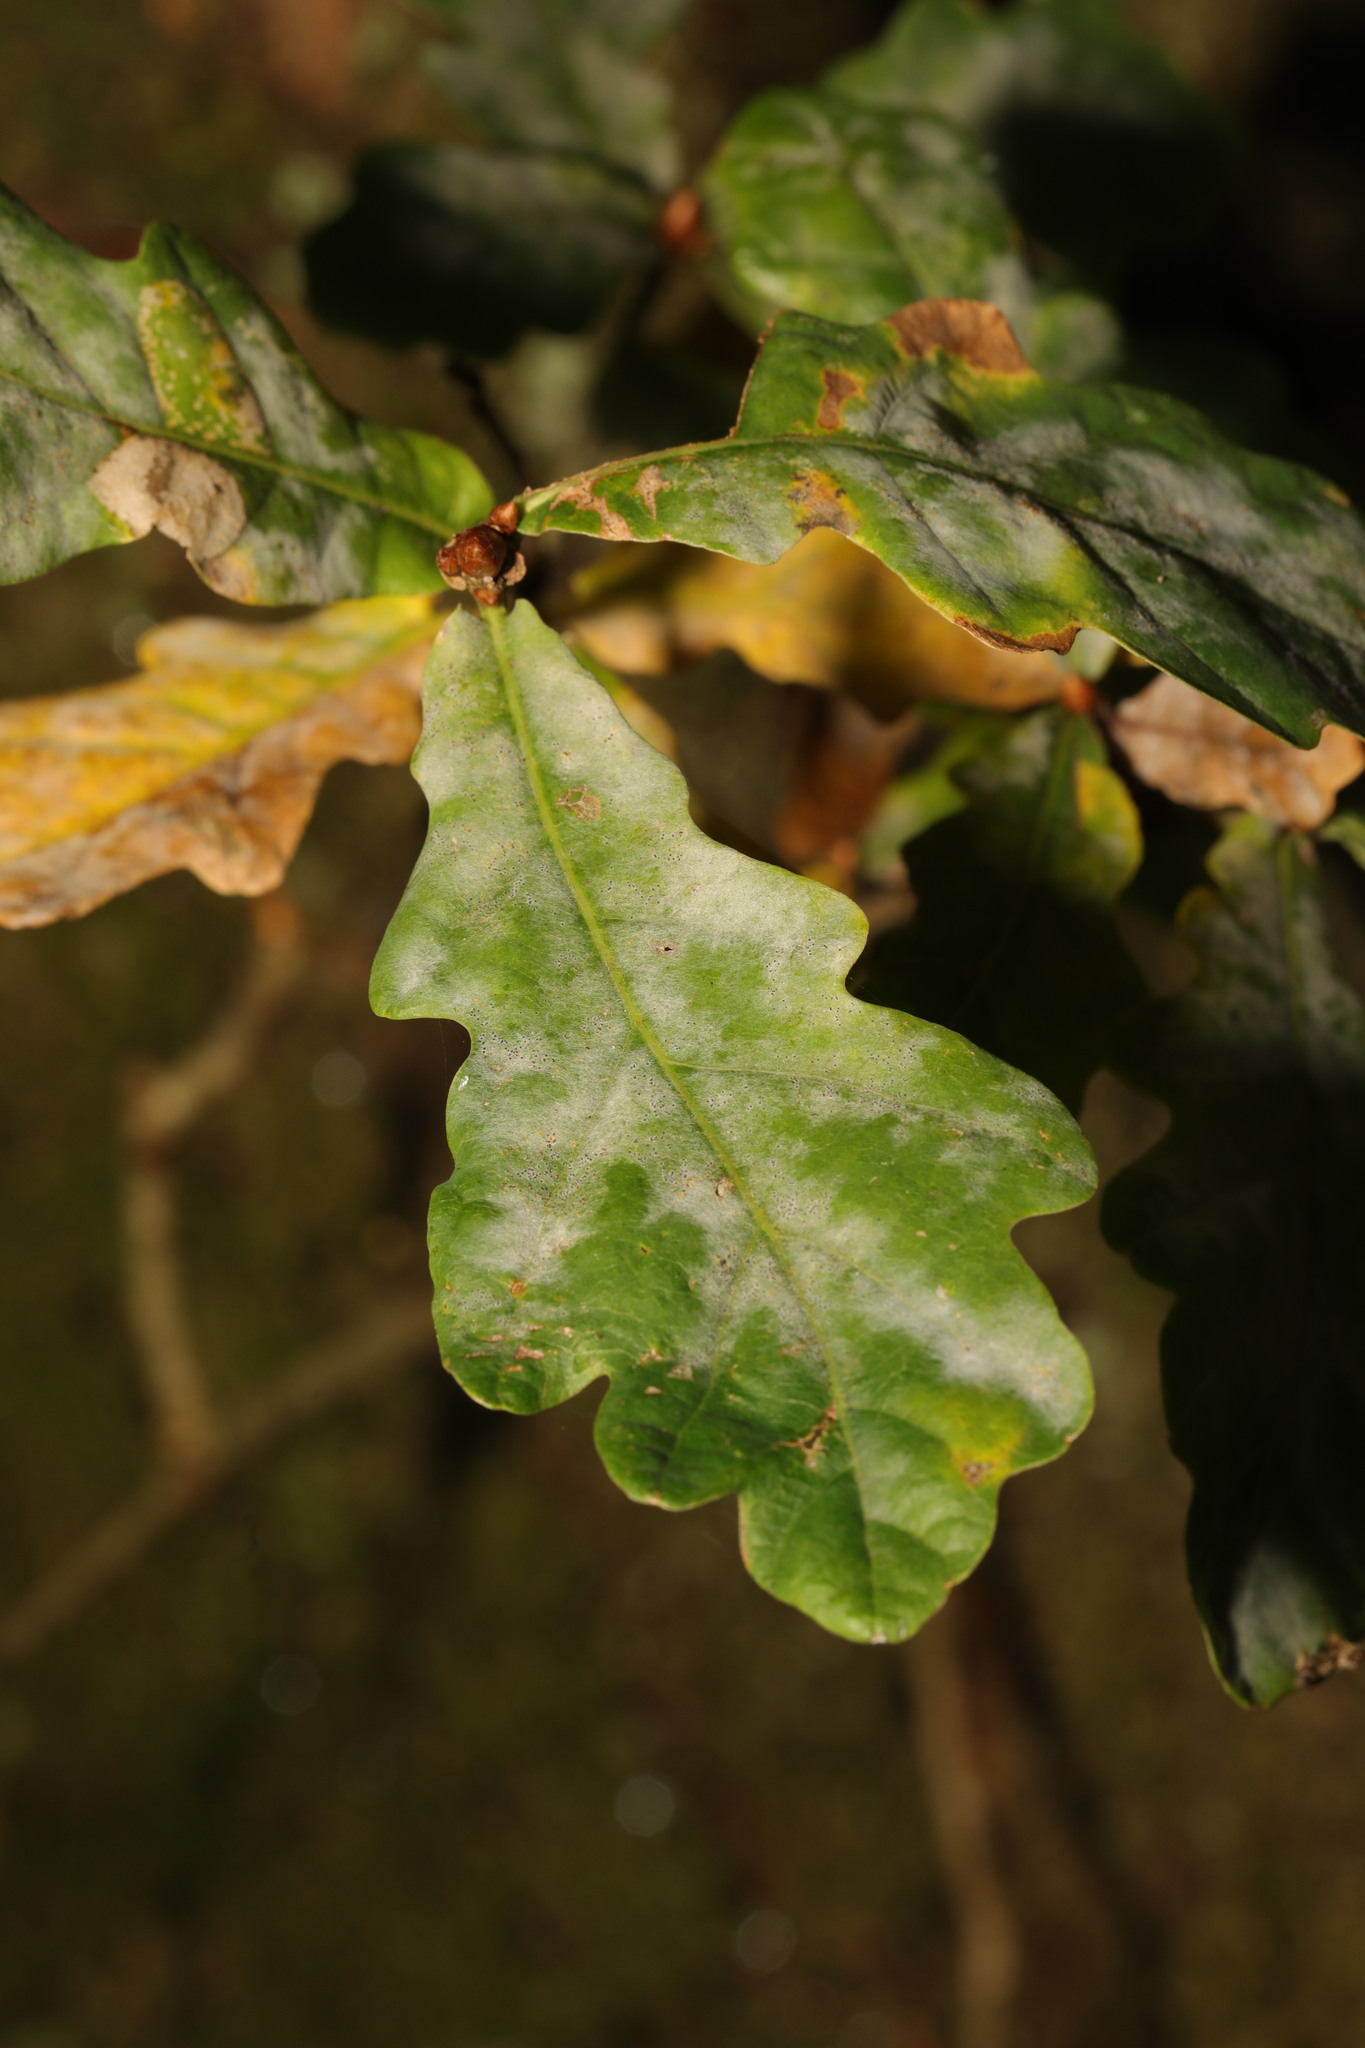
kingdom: Fungi
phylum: Ascomycota
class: Leotiomycetes
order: Helotiales
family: Erysiphaceae
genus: Erysiphe
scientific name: Erysiphe alphitoides
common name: Oak mildew
